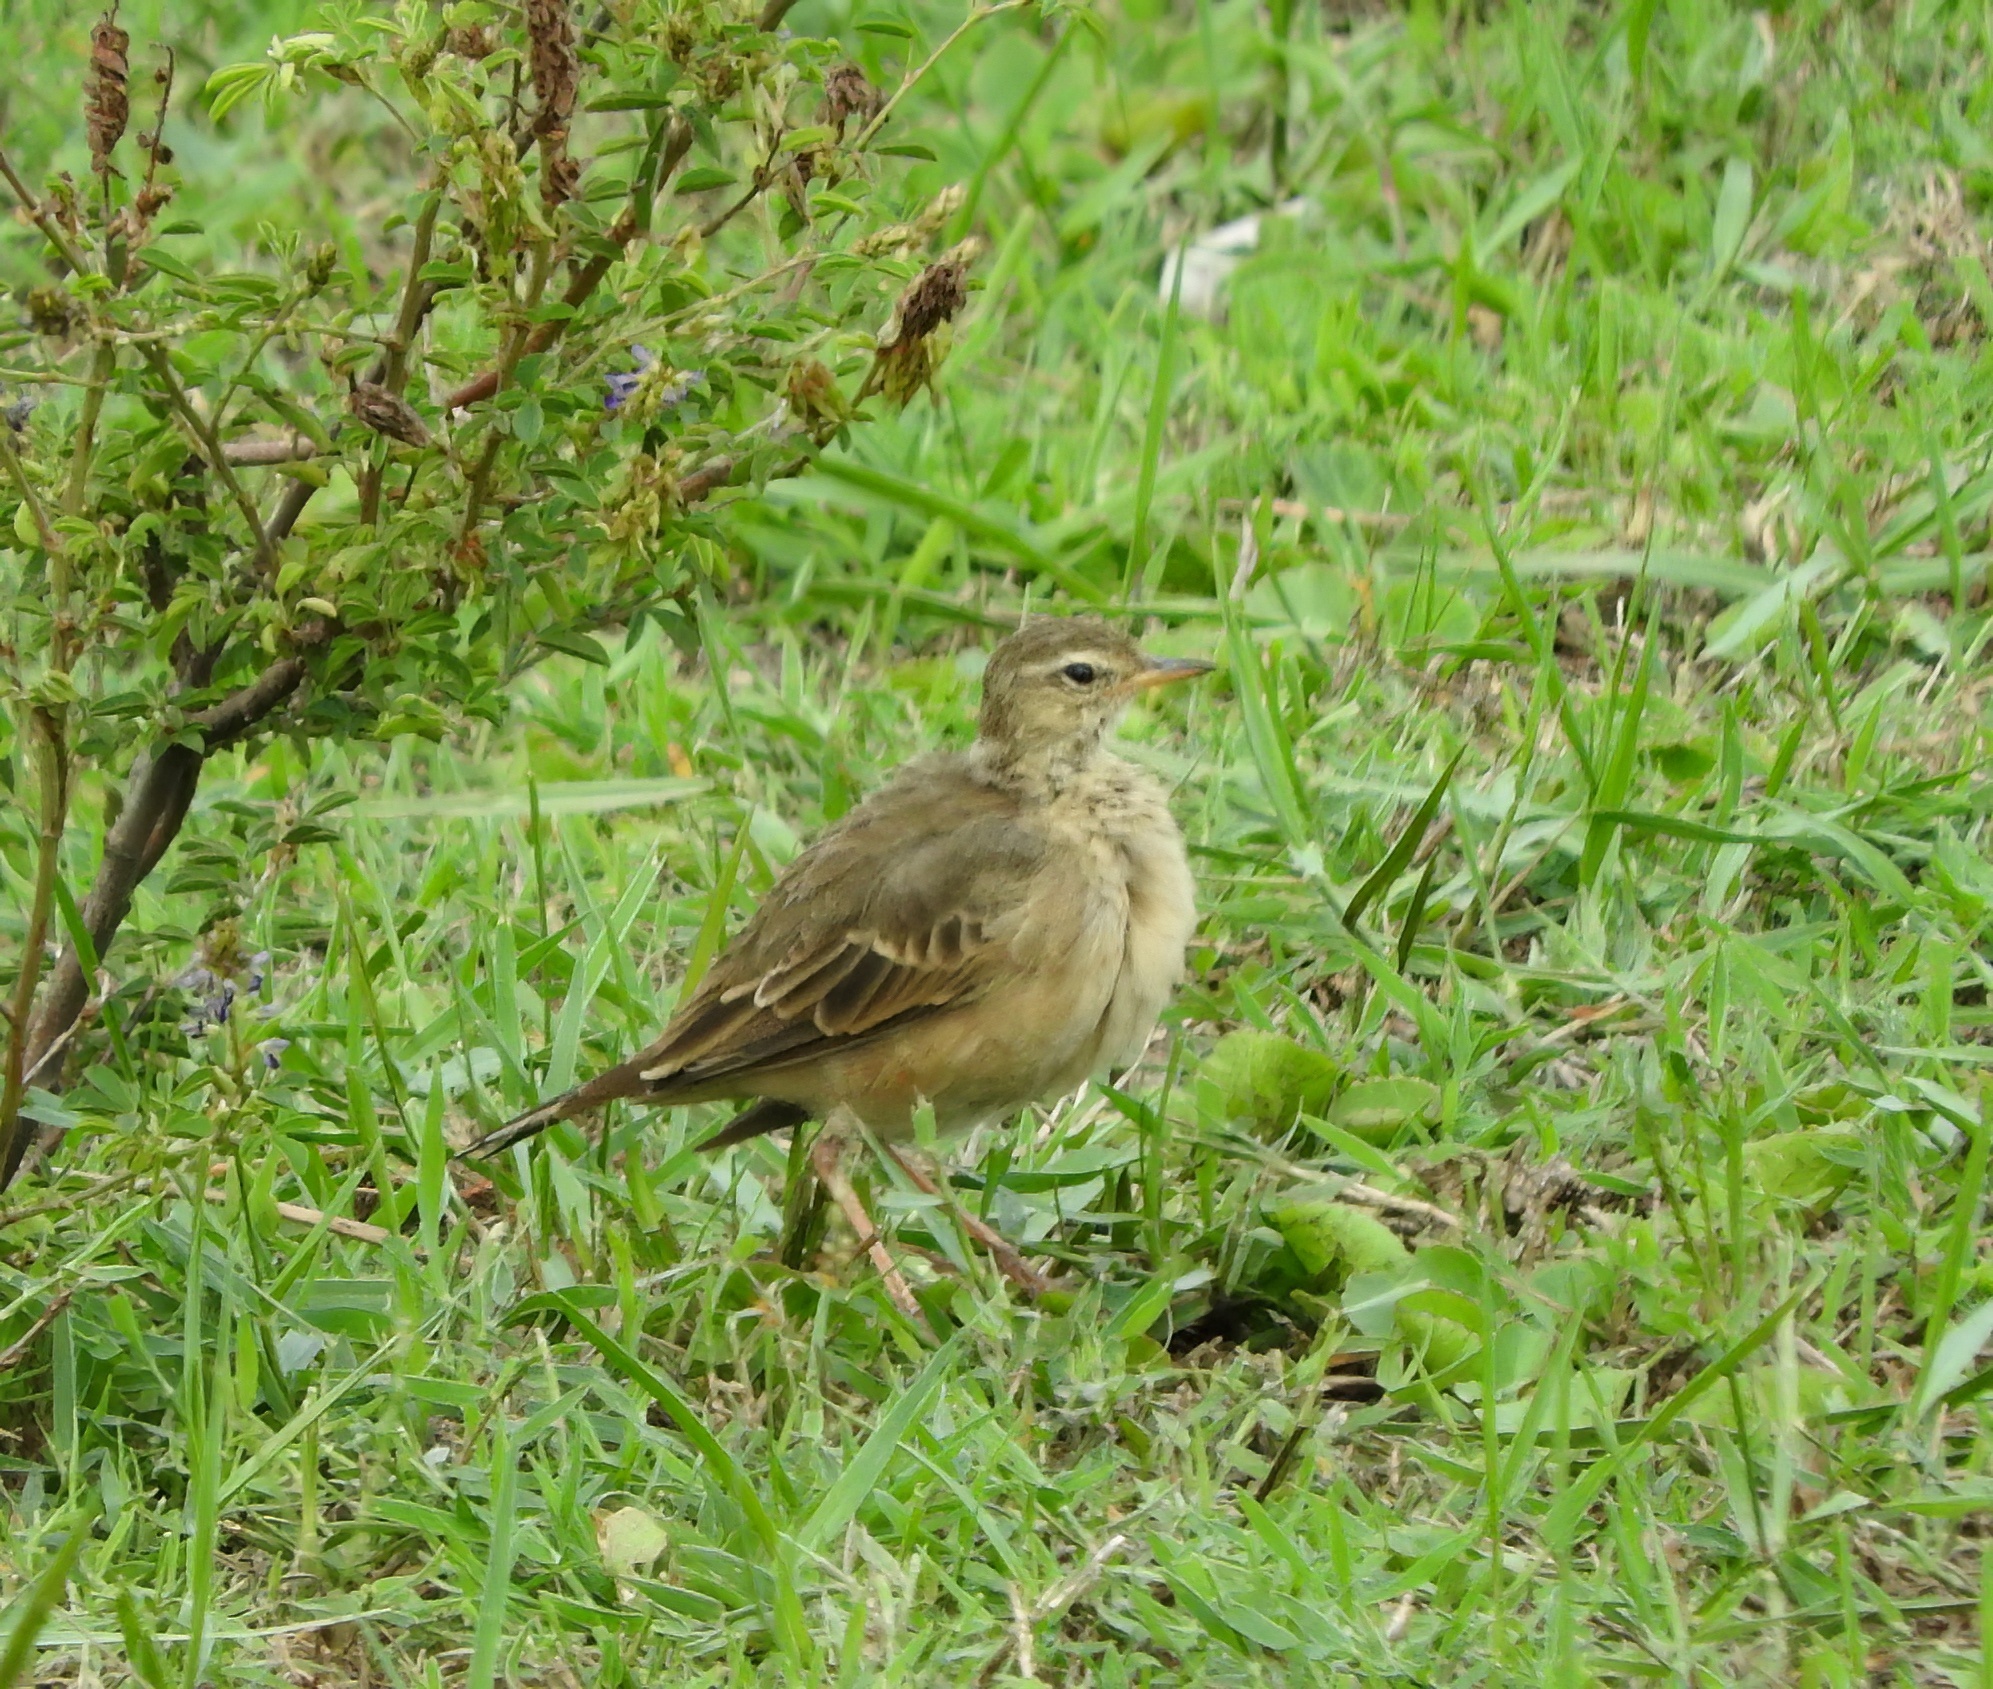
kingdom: Animalia
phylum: Chordata
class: Aves
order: Passeriformes
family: Motacillidae
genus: Anthus
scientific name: Anthus leucophrys
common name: Plain-backed pipit
